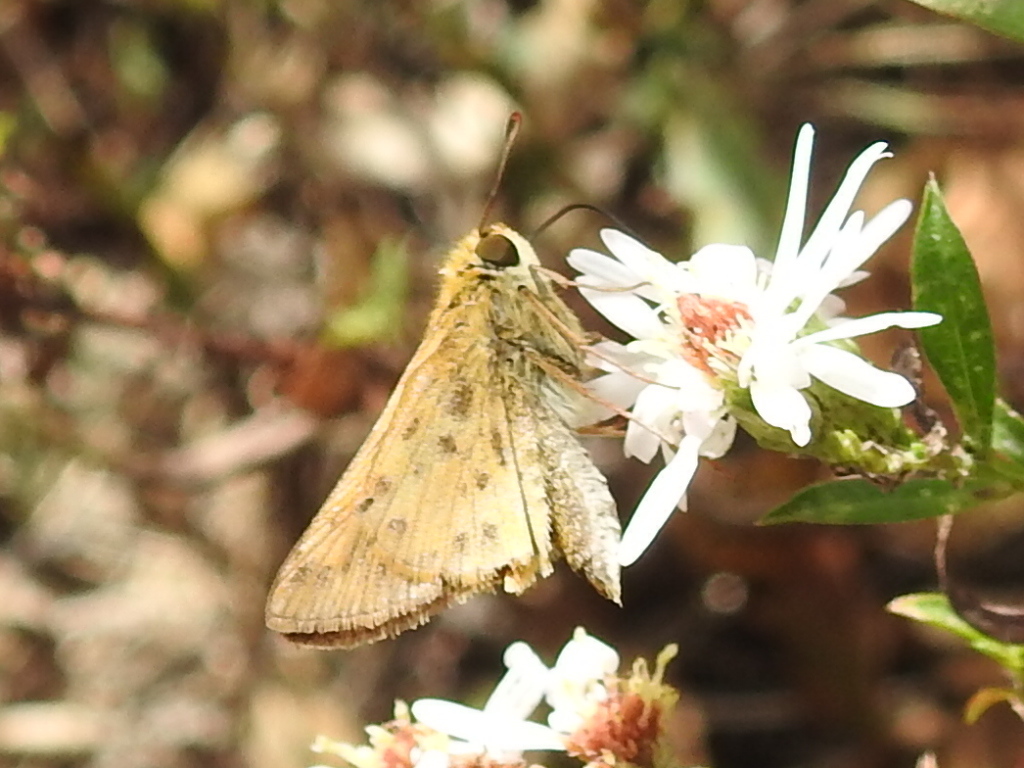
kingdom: Animalia
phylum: Arthropoda
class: Insecta
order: Lepidoptera
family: Hesperiidae
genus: Hylephila
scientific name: Hylephila phyleus
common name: Fiery skipper
